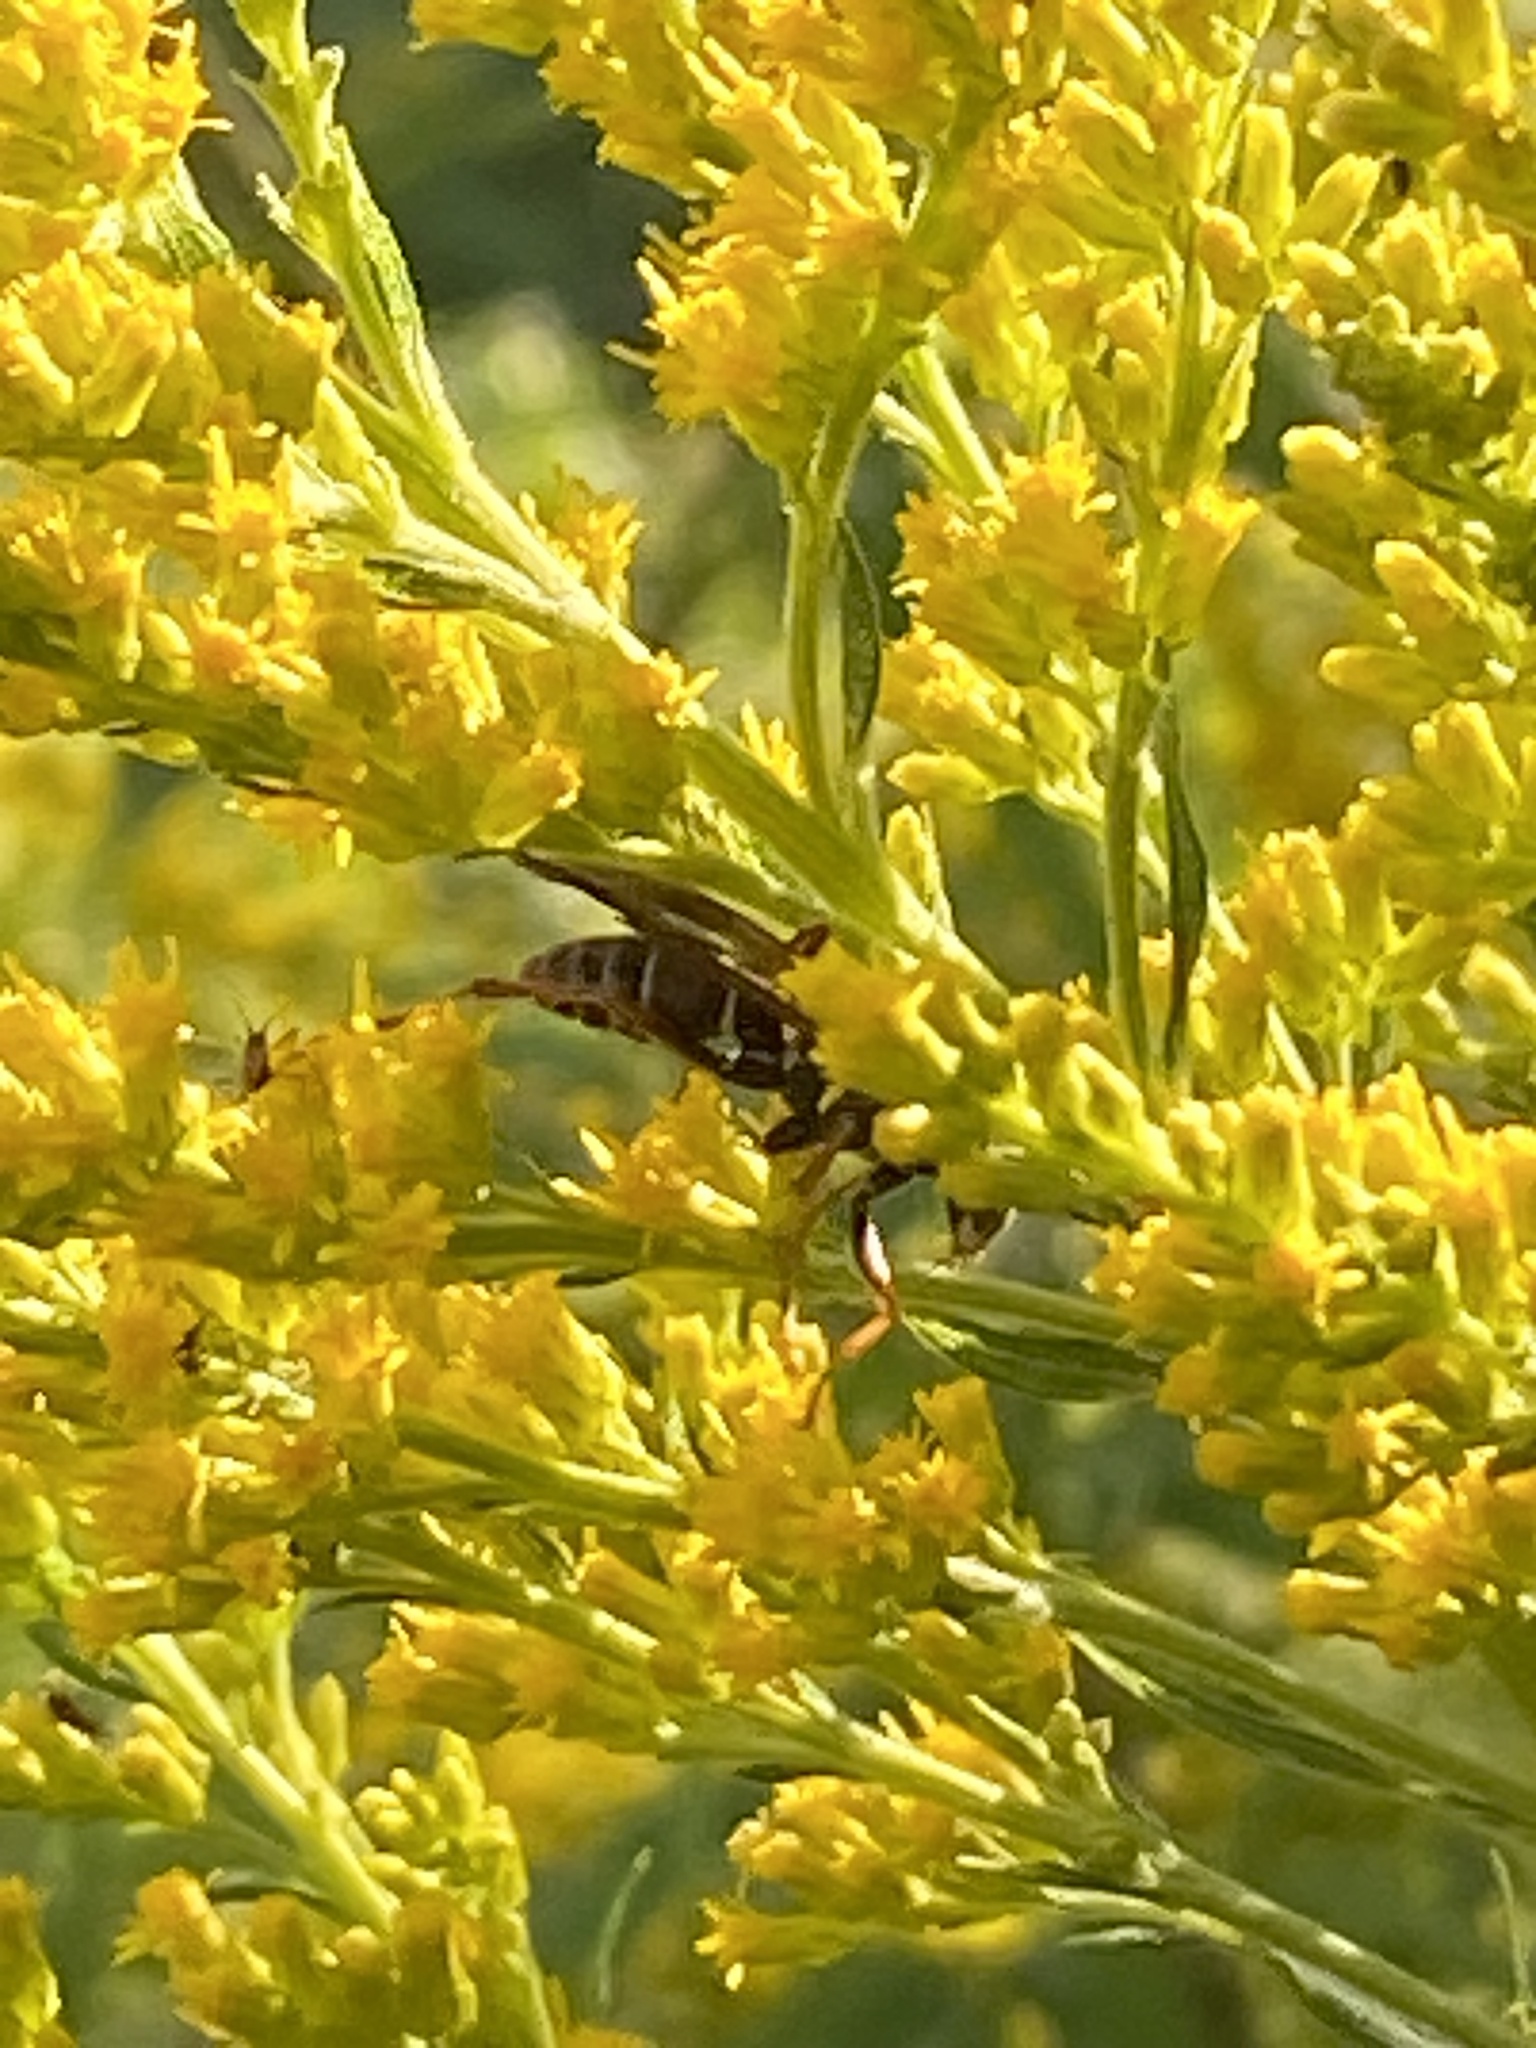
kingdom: Animalia
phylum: Arthropoda
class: Insecta
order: Hymenoptera
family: Eumenidae
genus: Polistes
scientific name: Polistes fuscatus
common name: Dark paper wasp
